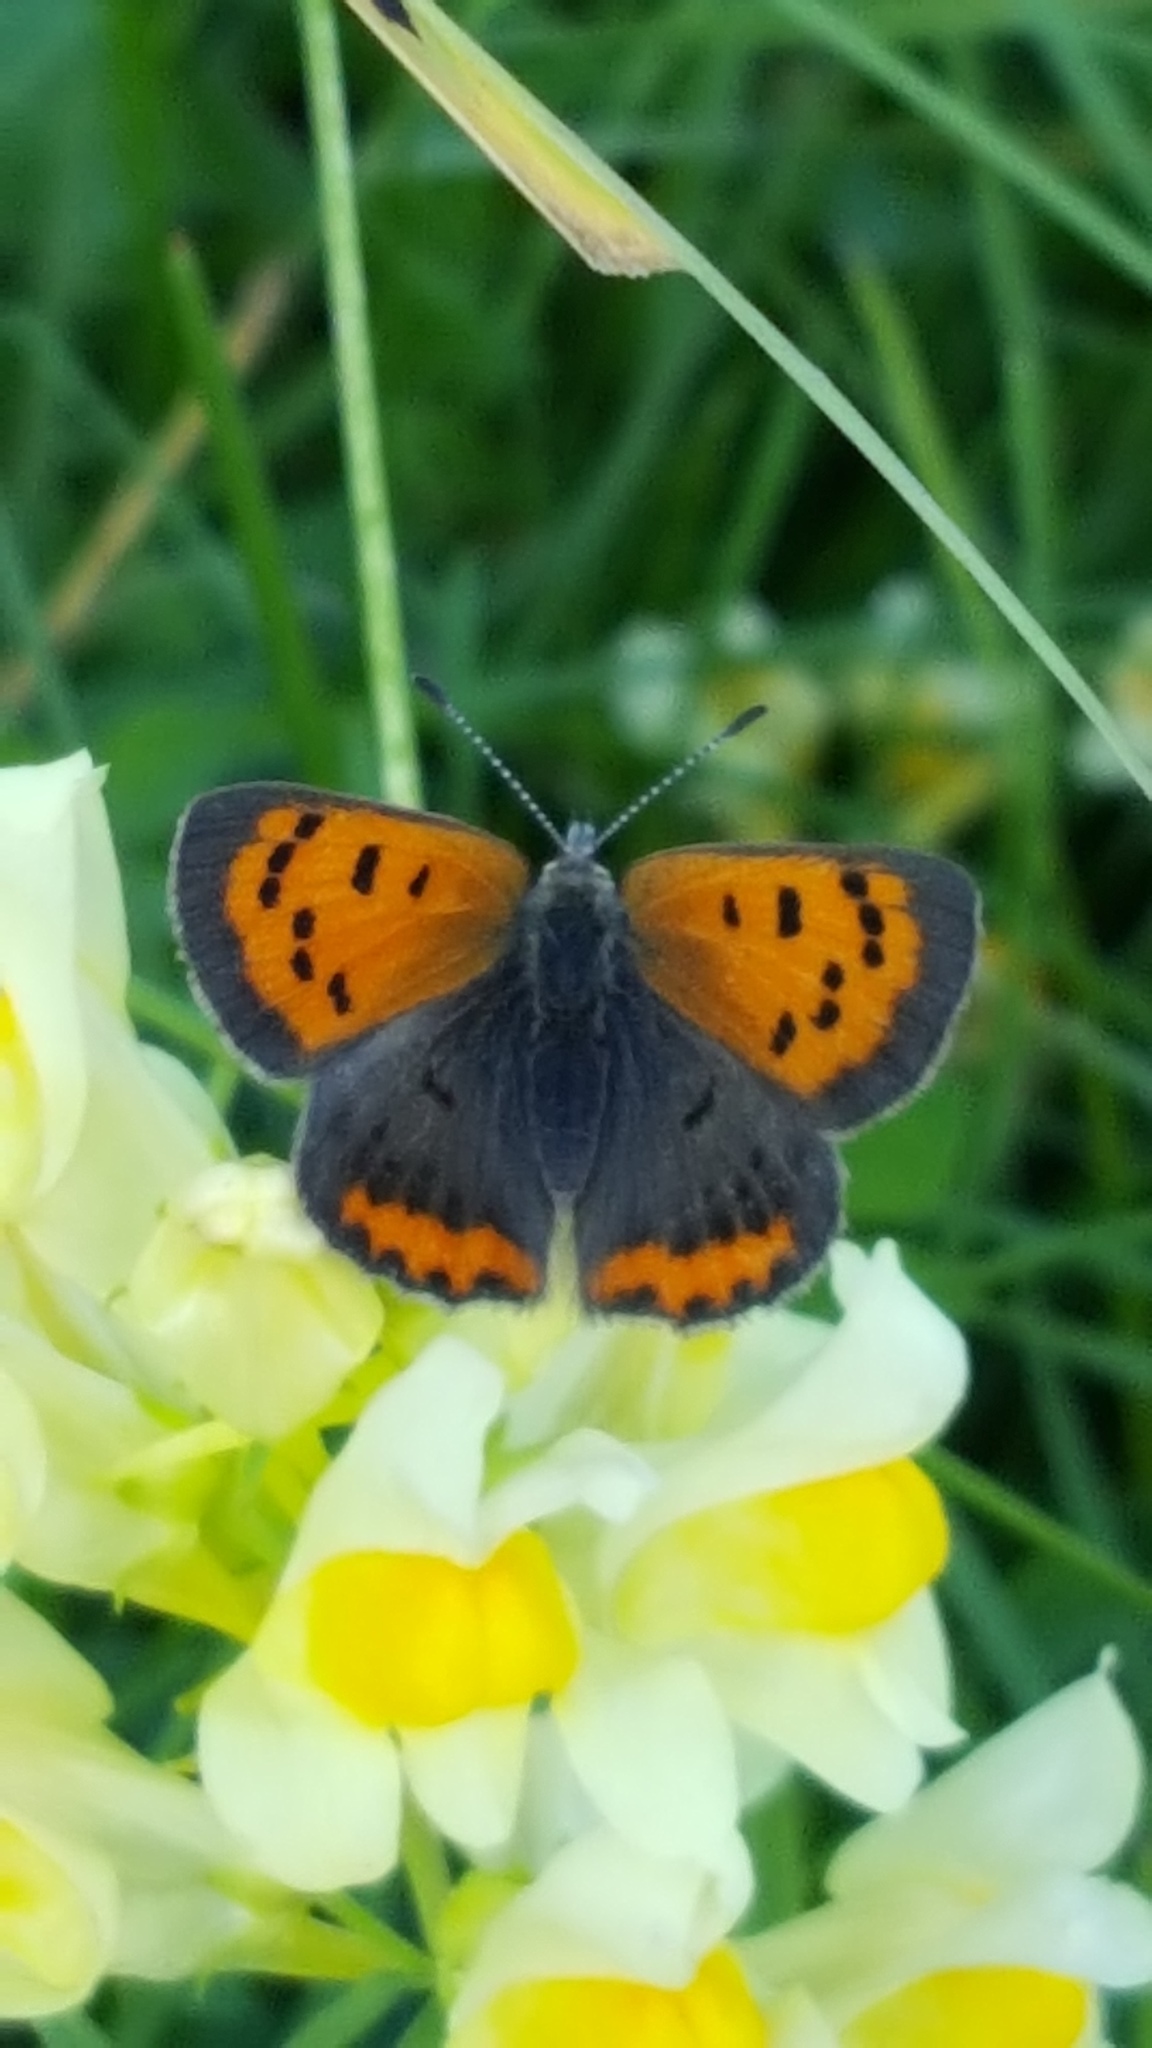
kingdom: Animalia
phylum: Arthropoda
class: Insecta
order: Lepidoptera
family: Lycaenidae
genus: Lycaena
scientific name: Lycaena hypophlaeas
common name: American copper
